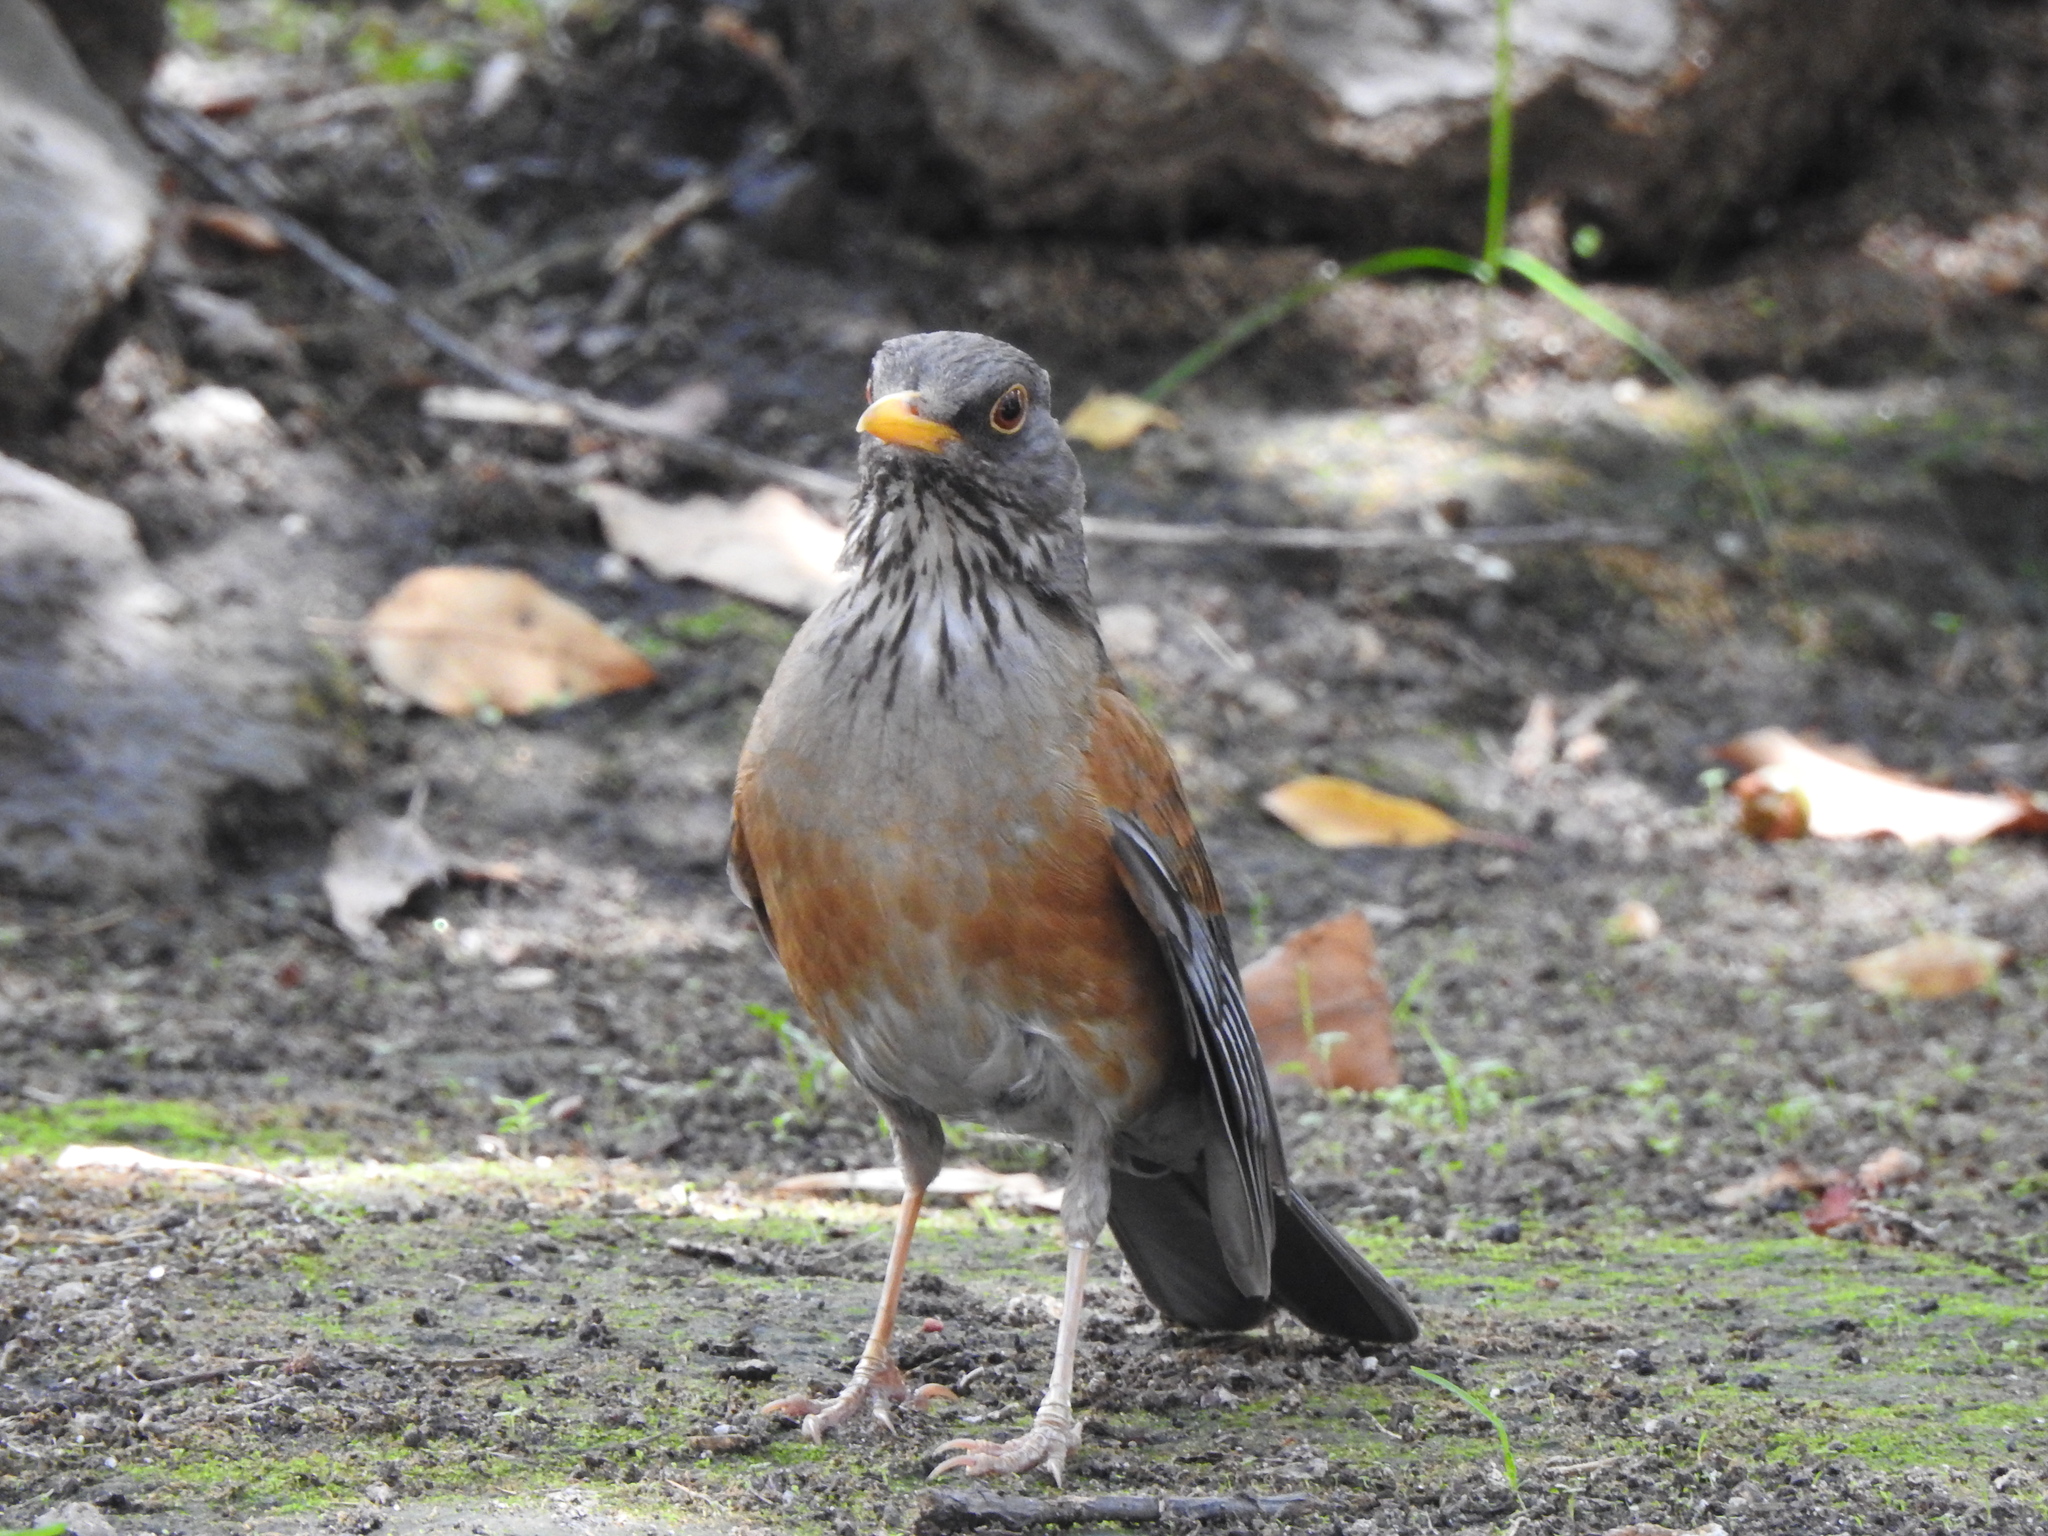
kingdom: Animalia
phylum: Chordata
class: Aves
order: Passeriformes
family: Turdidae
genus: Turdus
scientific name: Turdus rufopalliatus
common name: Rufous-backed robin
